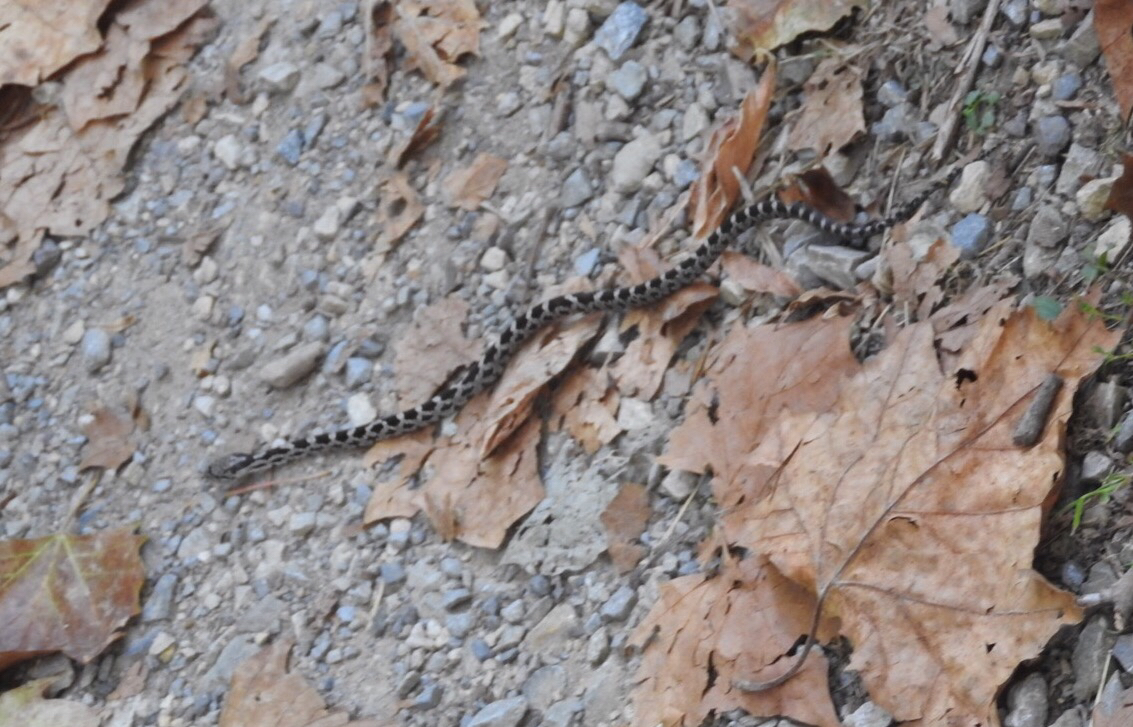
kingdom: Animalia
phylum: Chordata
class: Squamata
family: Colubridae
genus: Pantherophis
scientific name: Pantherophis alleghaniensis
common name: Eastern rat snake
